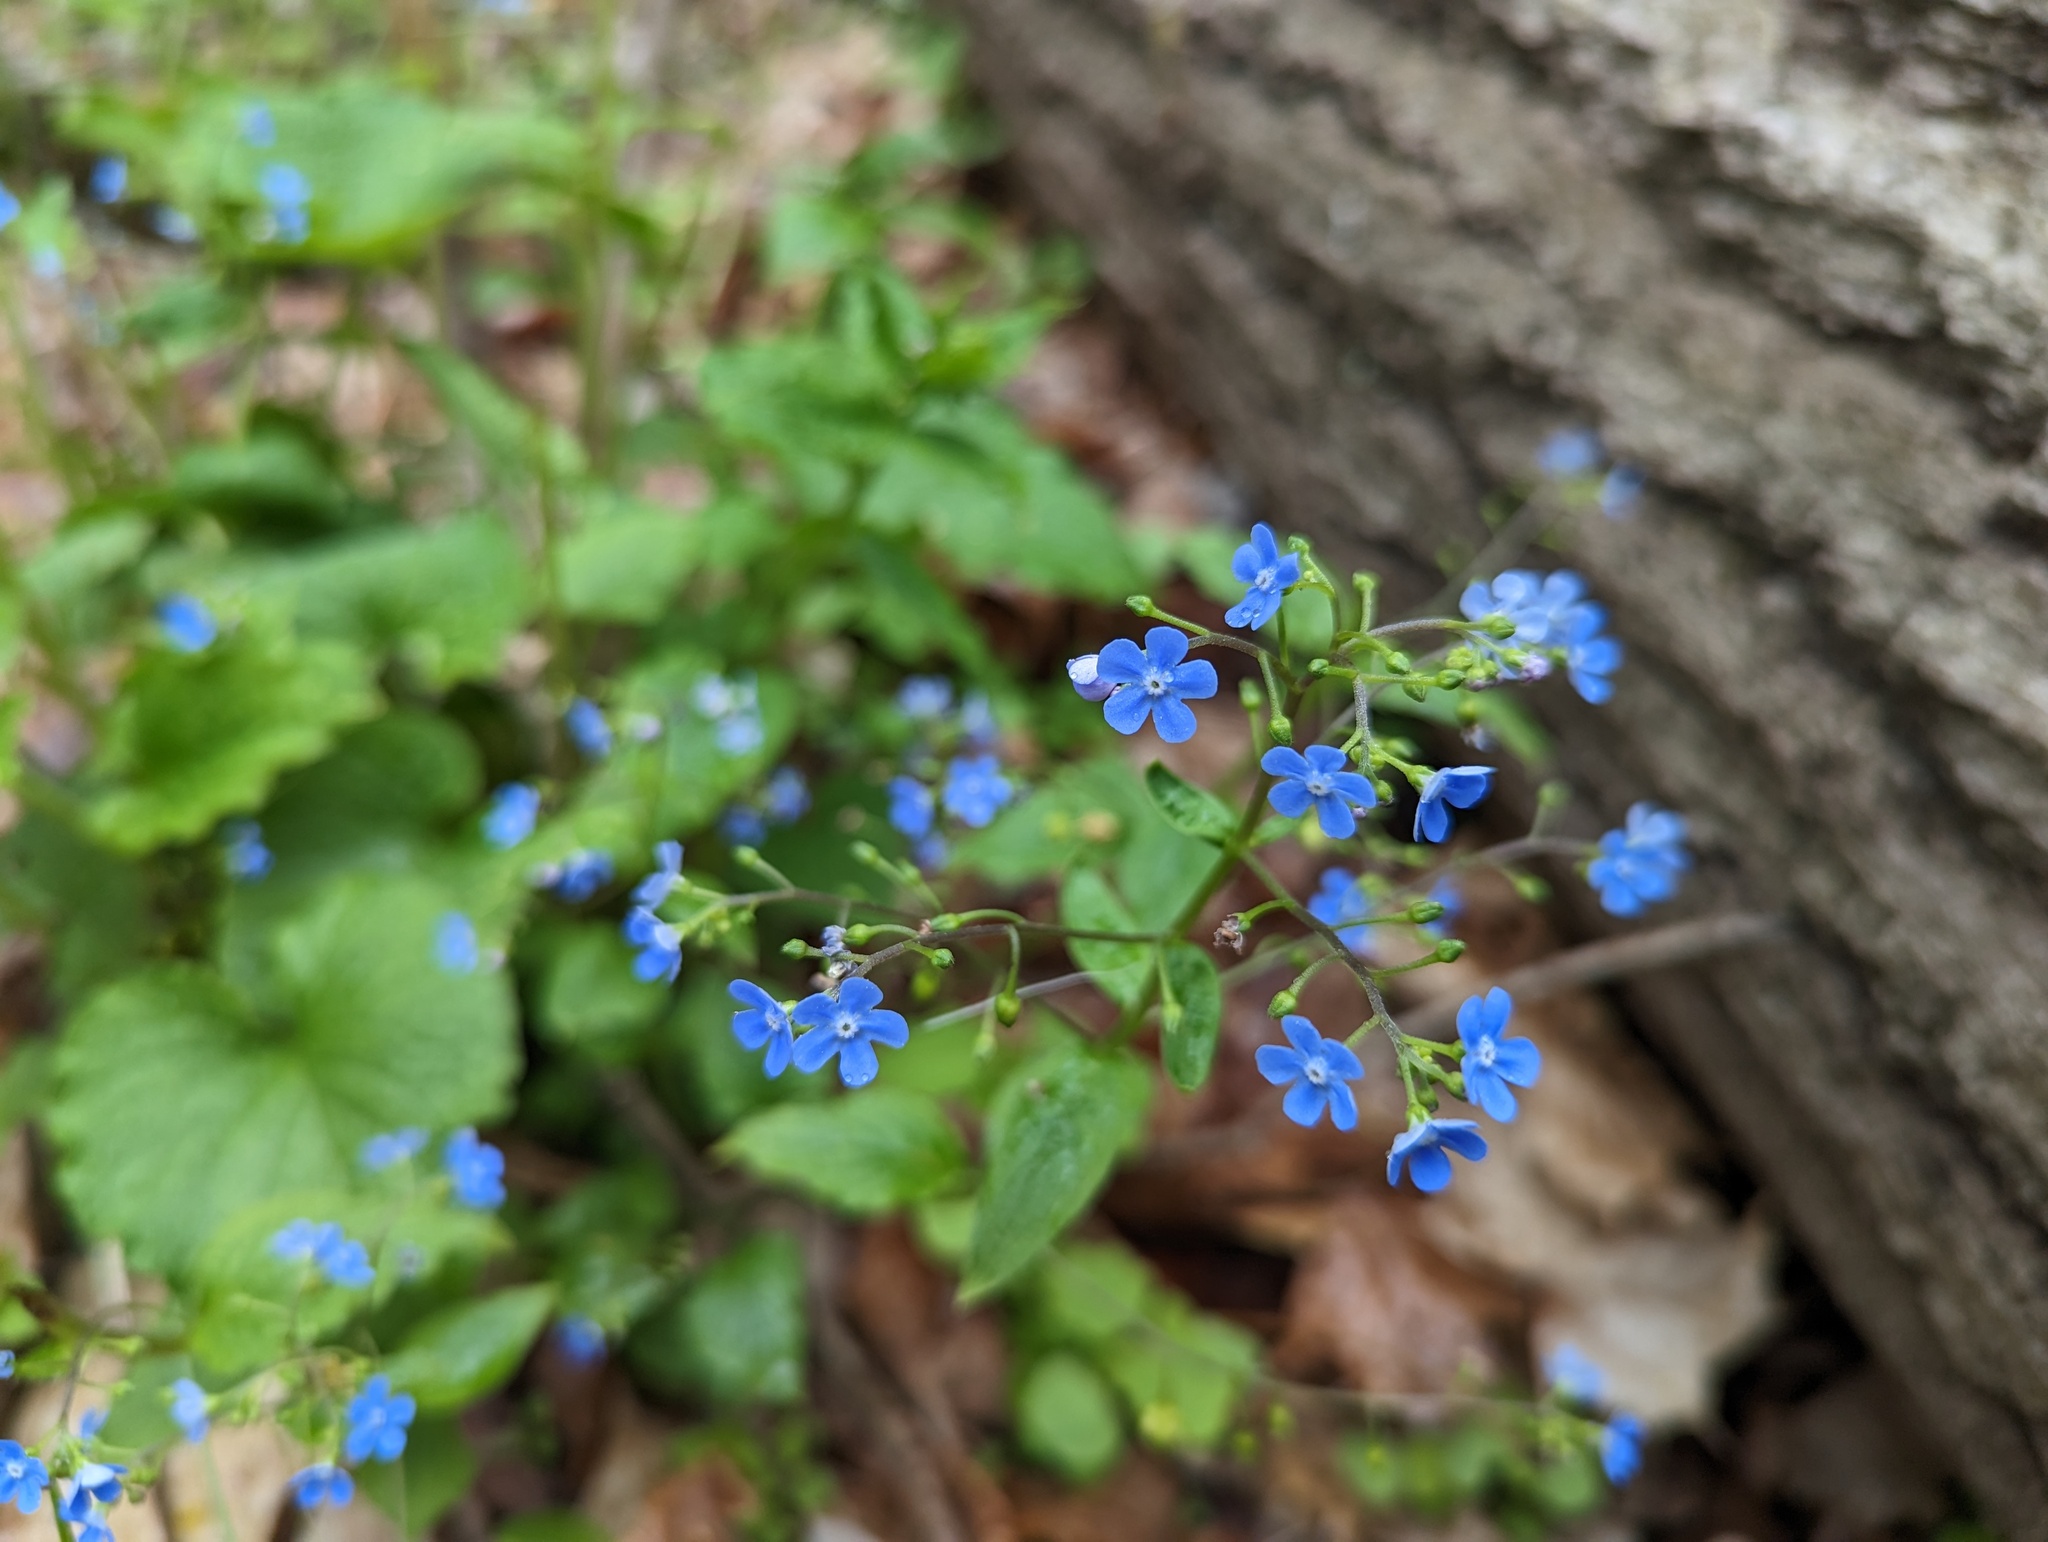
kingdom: Plantae
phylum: Tracheophyta
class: Magnoliopsida
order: Boraginales
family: Boraginaceae
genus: Brunnera
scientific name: Brunnera macrophylla
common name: Great forget-me-not
